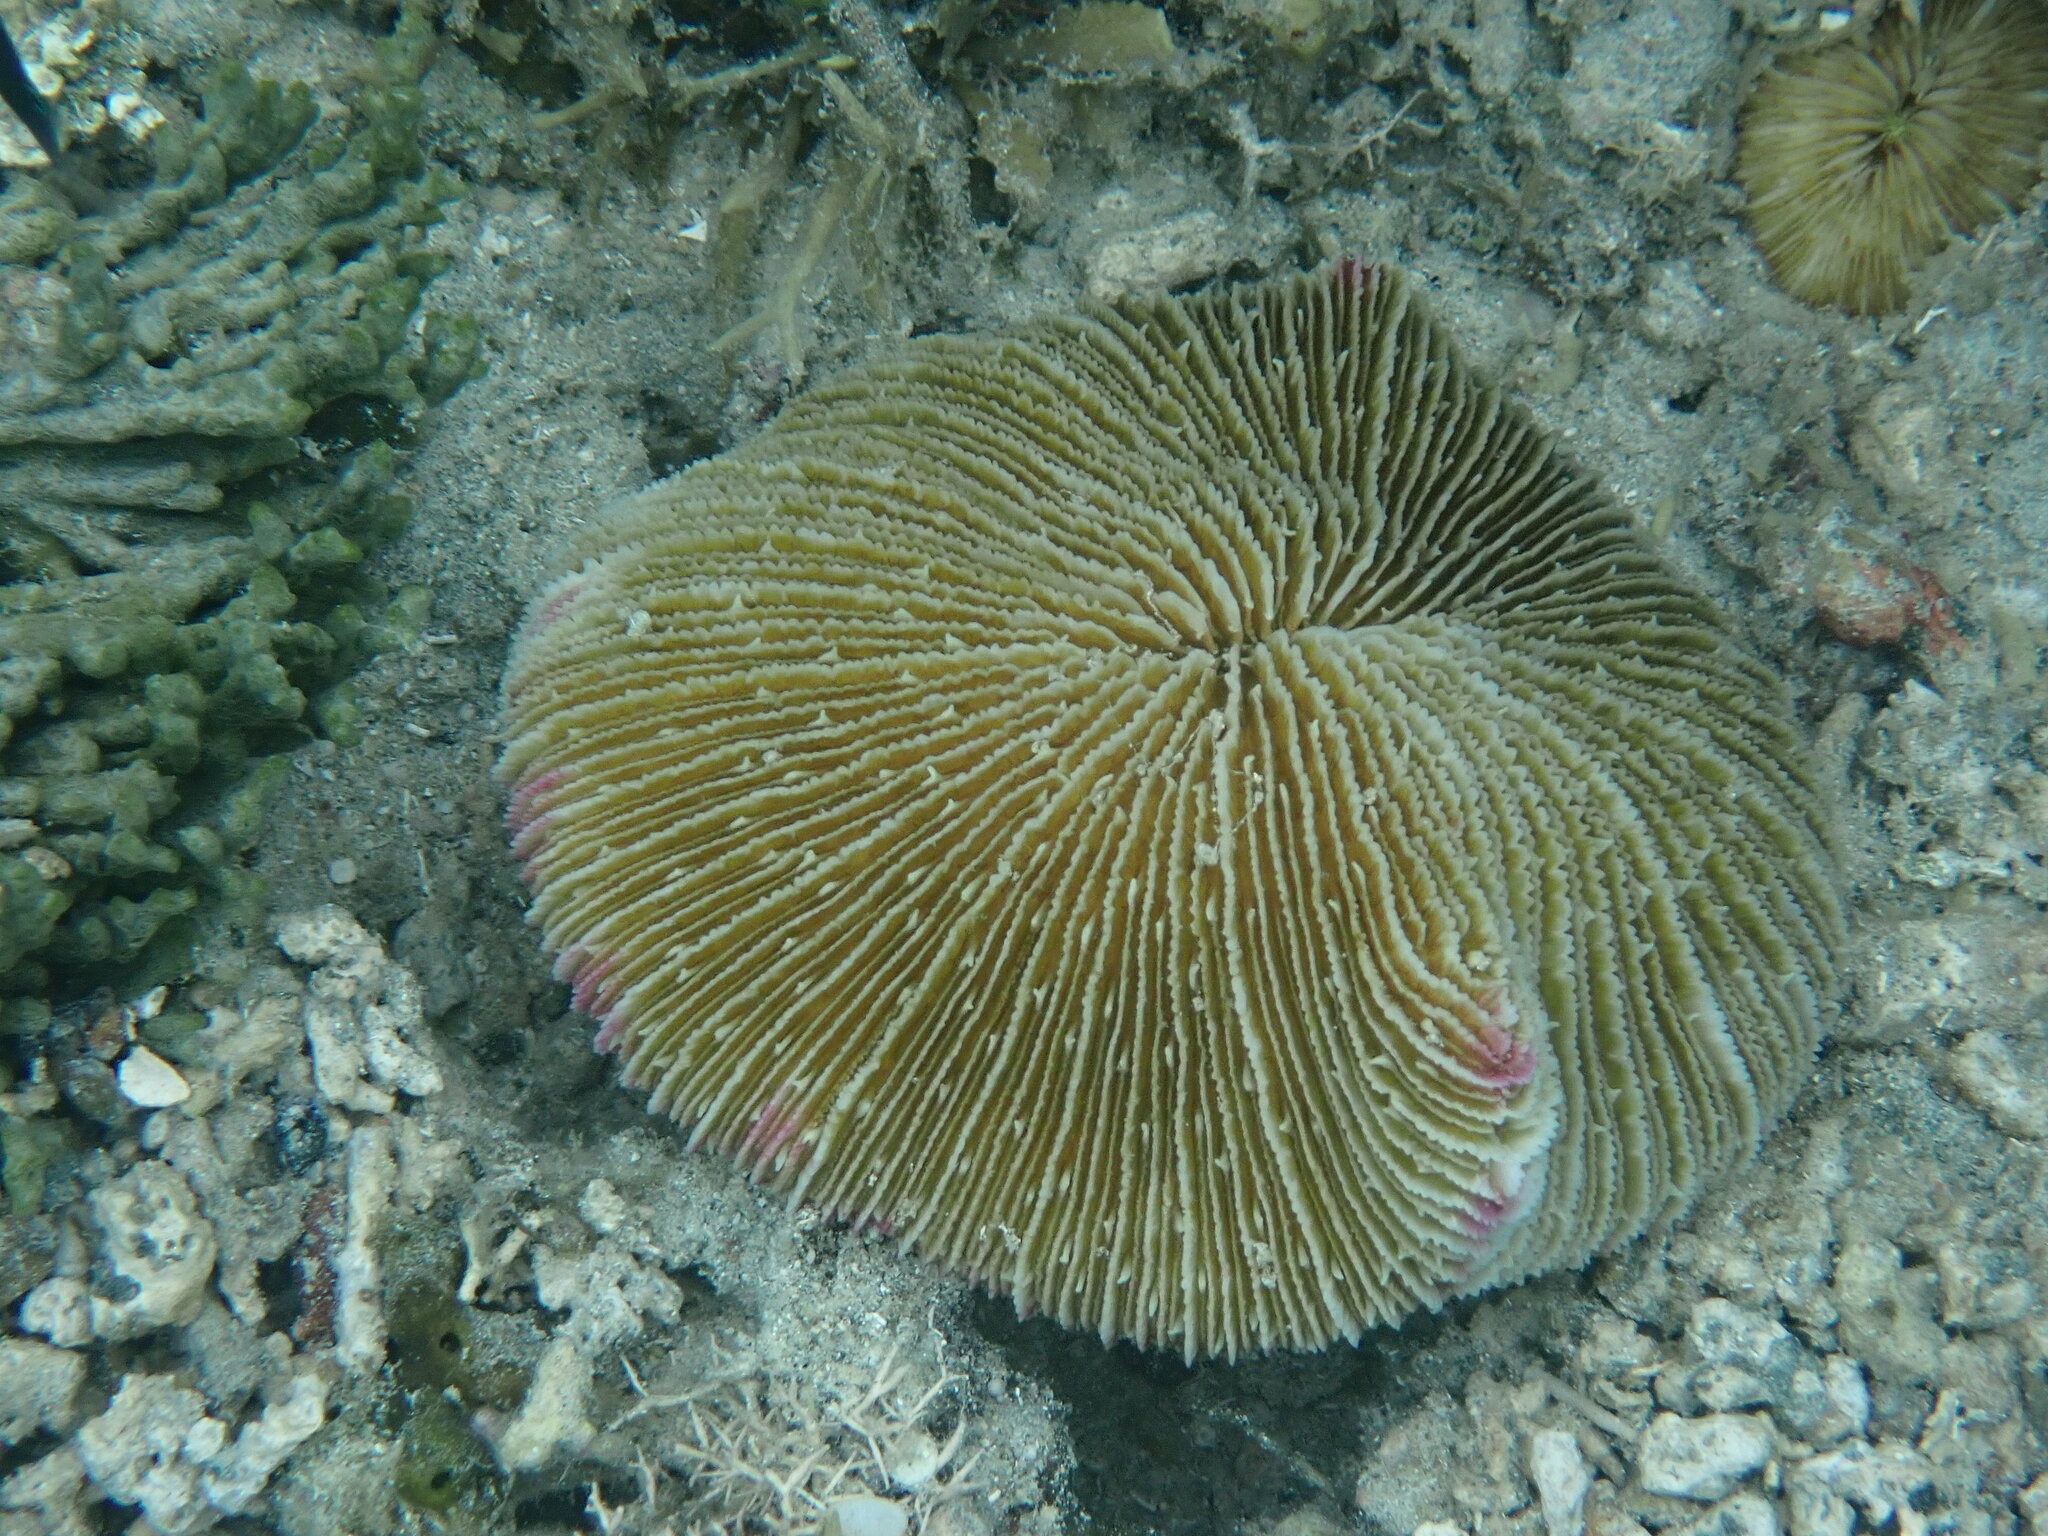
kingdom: Animalia
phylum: Cnidaria
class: Anthozoa
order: Scleractinia
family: Fungiidae
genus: Fungia
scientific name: Fungia fungites
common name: Mushroom coral
